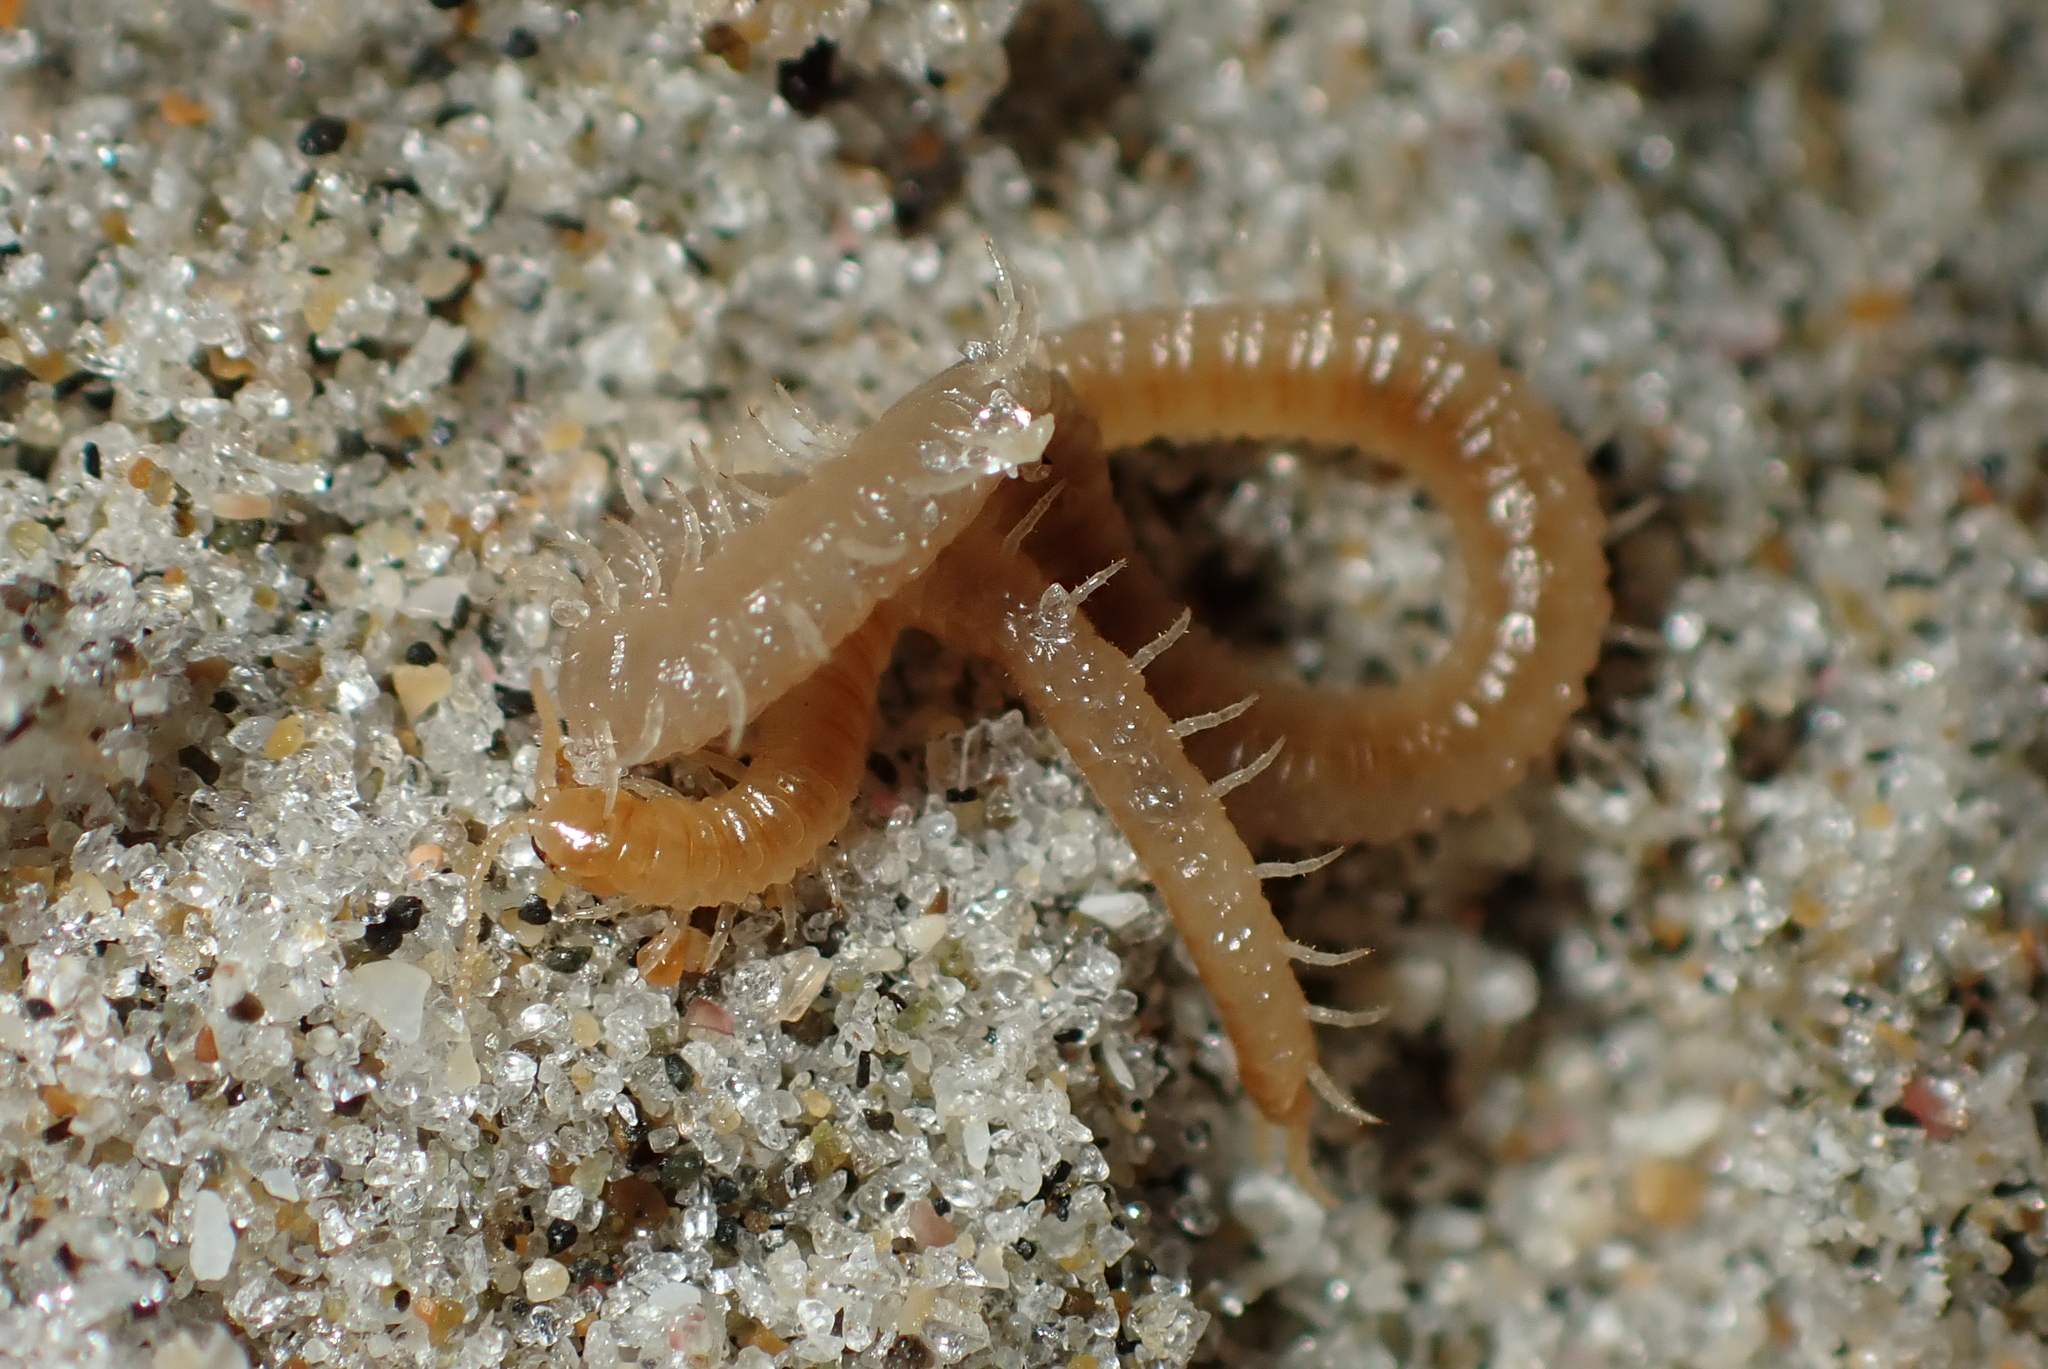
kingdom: Animalia
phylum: Arthropoda
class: Chilopoda
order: Geophilomorpha
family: Geophilidae
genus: Tuoba
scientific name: Tuoba xylophaga
